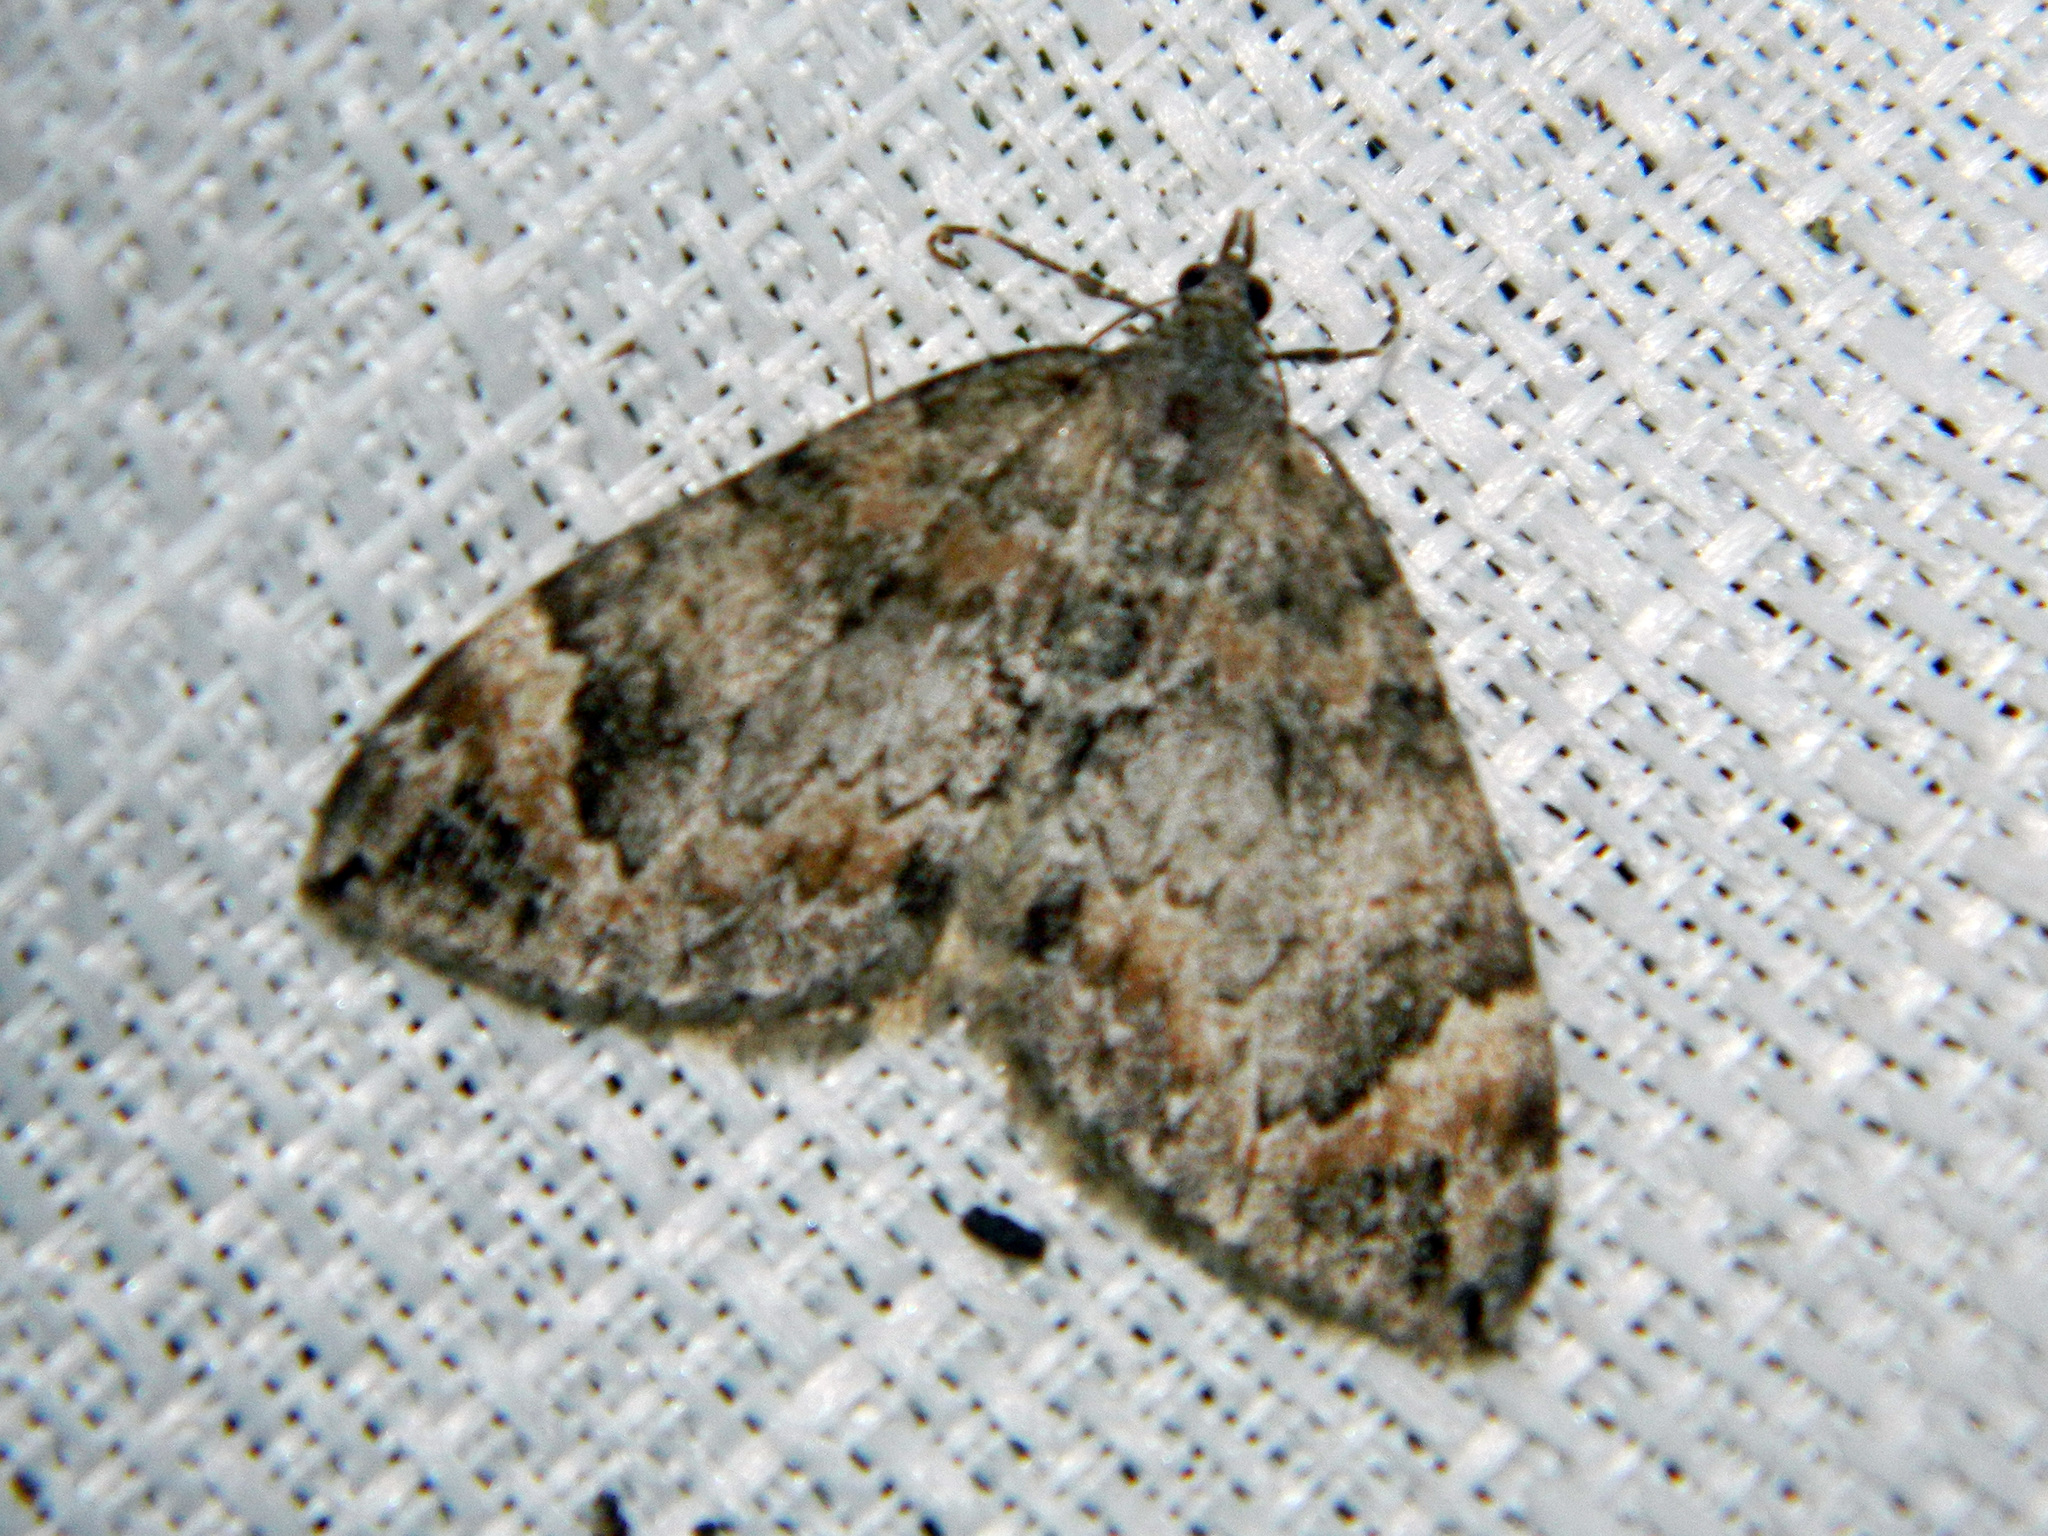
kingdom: Animalia
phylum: Arthropoda
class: Insecta
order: Lepidoptera
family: Geometridae
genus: Dysstroma
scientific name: Dysstroma citrata
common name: Dark marbled carpet
